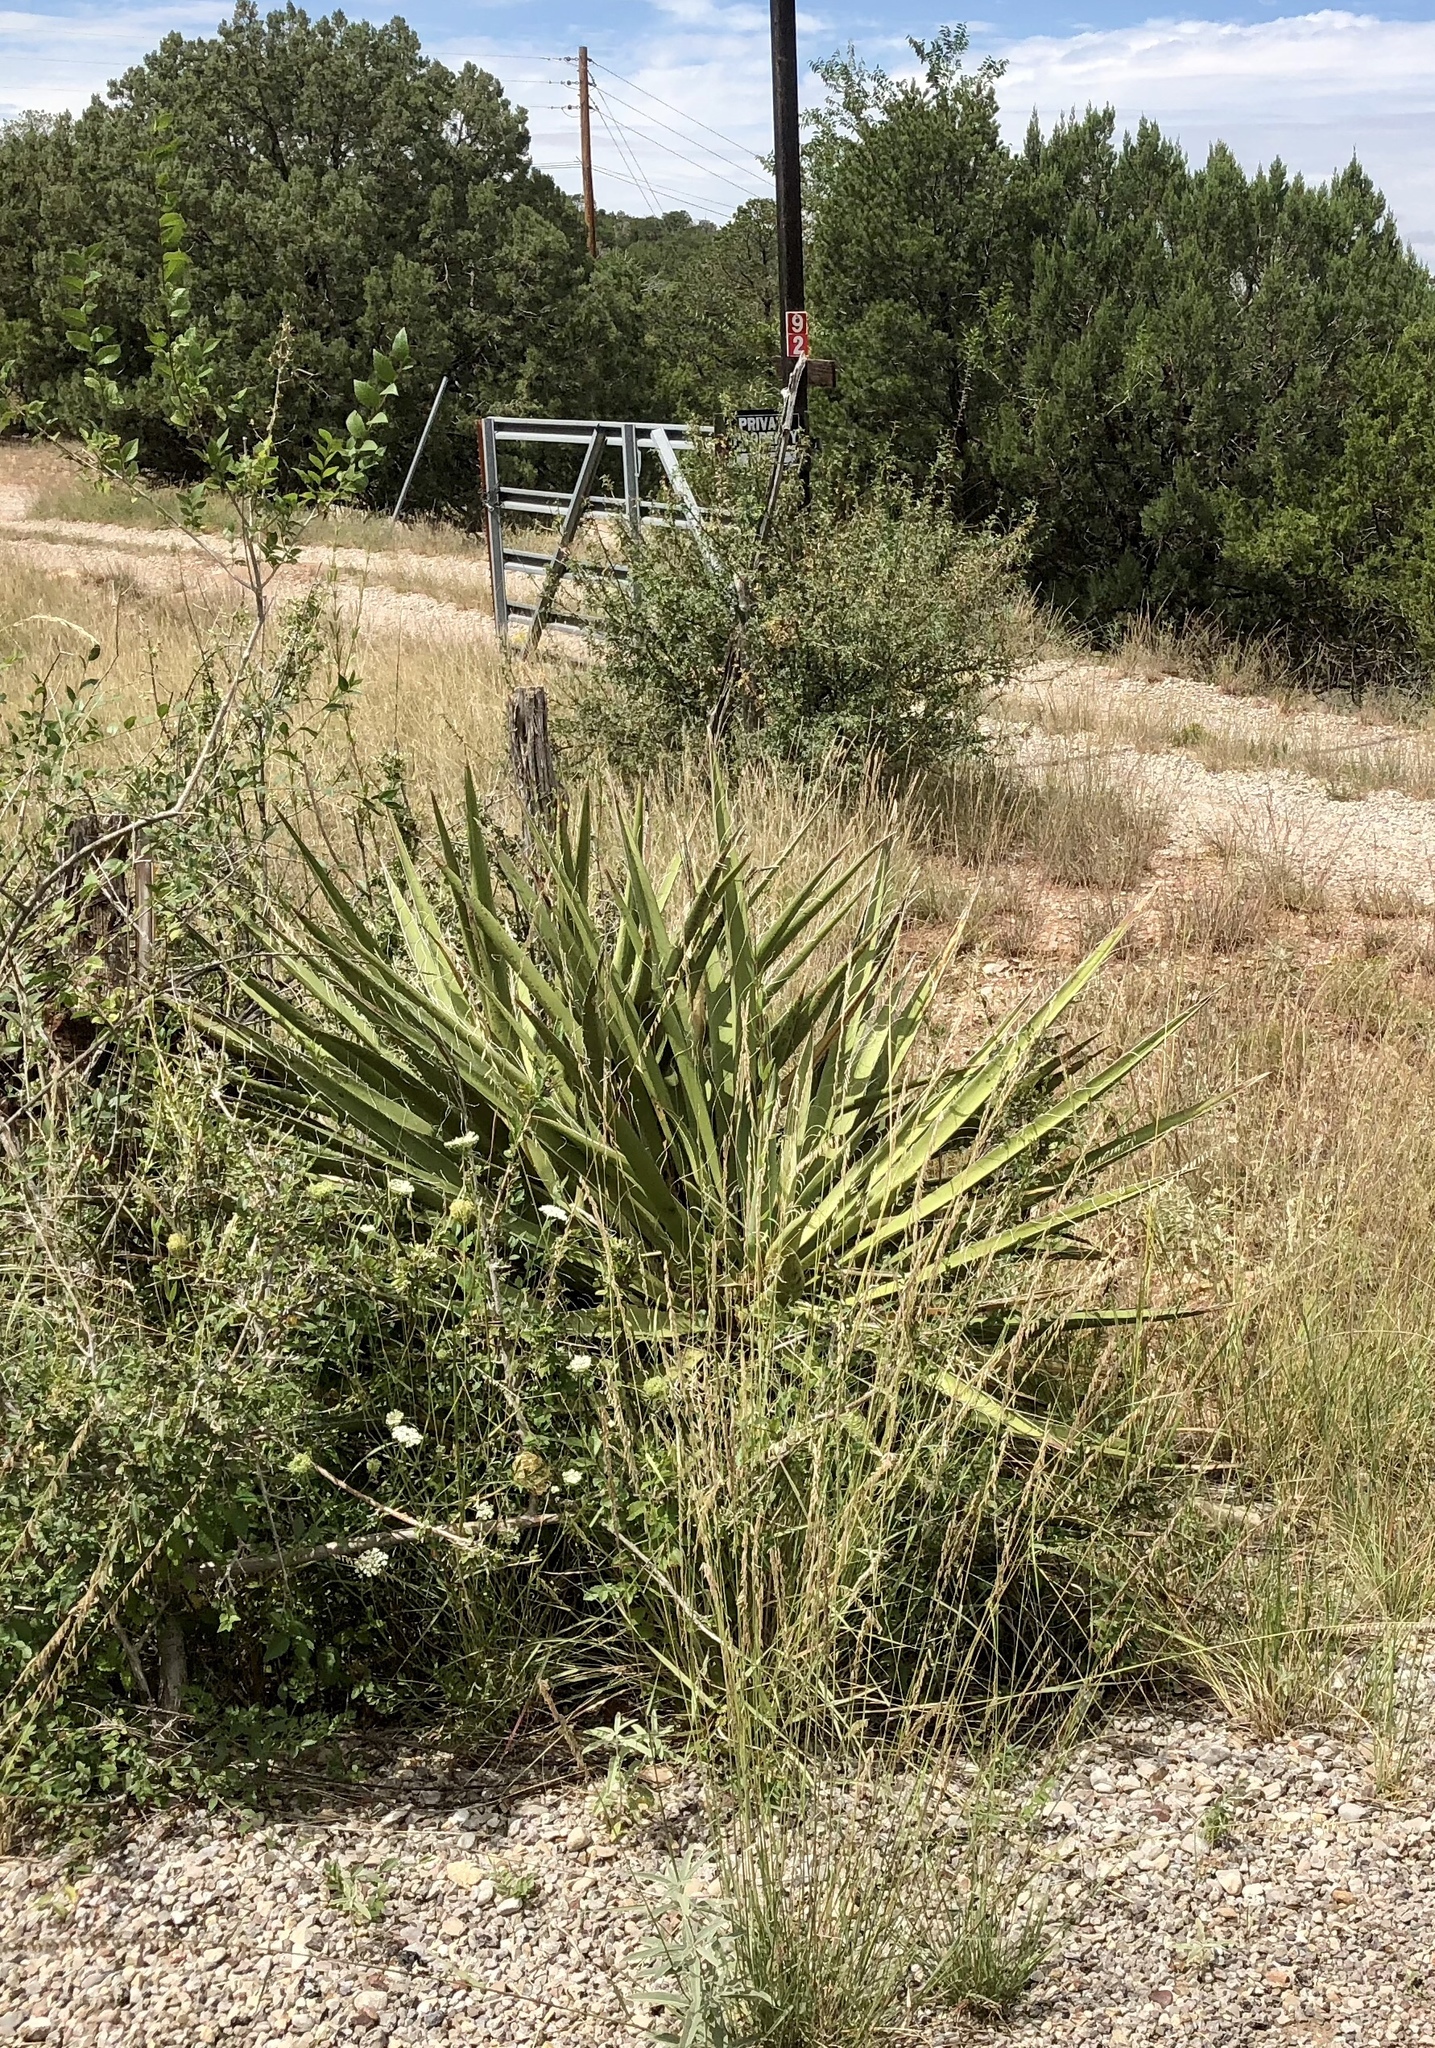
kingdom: Plantae
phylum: Tracheophyta
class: Liliopsida
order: Asparagales
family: Asparagaceae
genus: Yucca
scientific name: Yucca baccata
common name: Banana yucca
